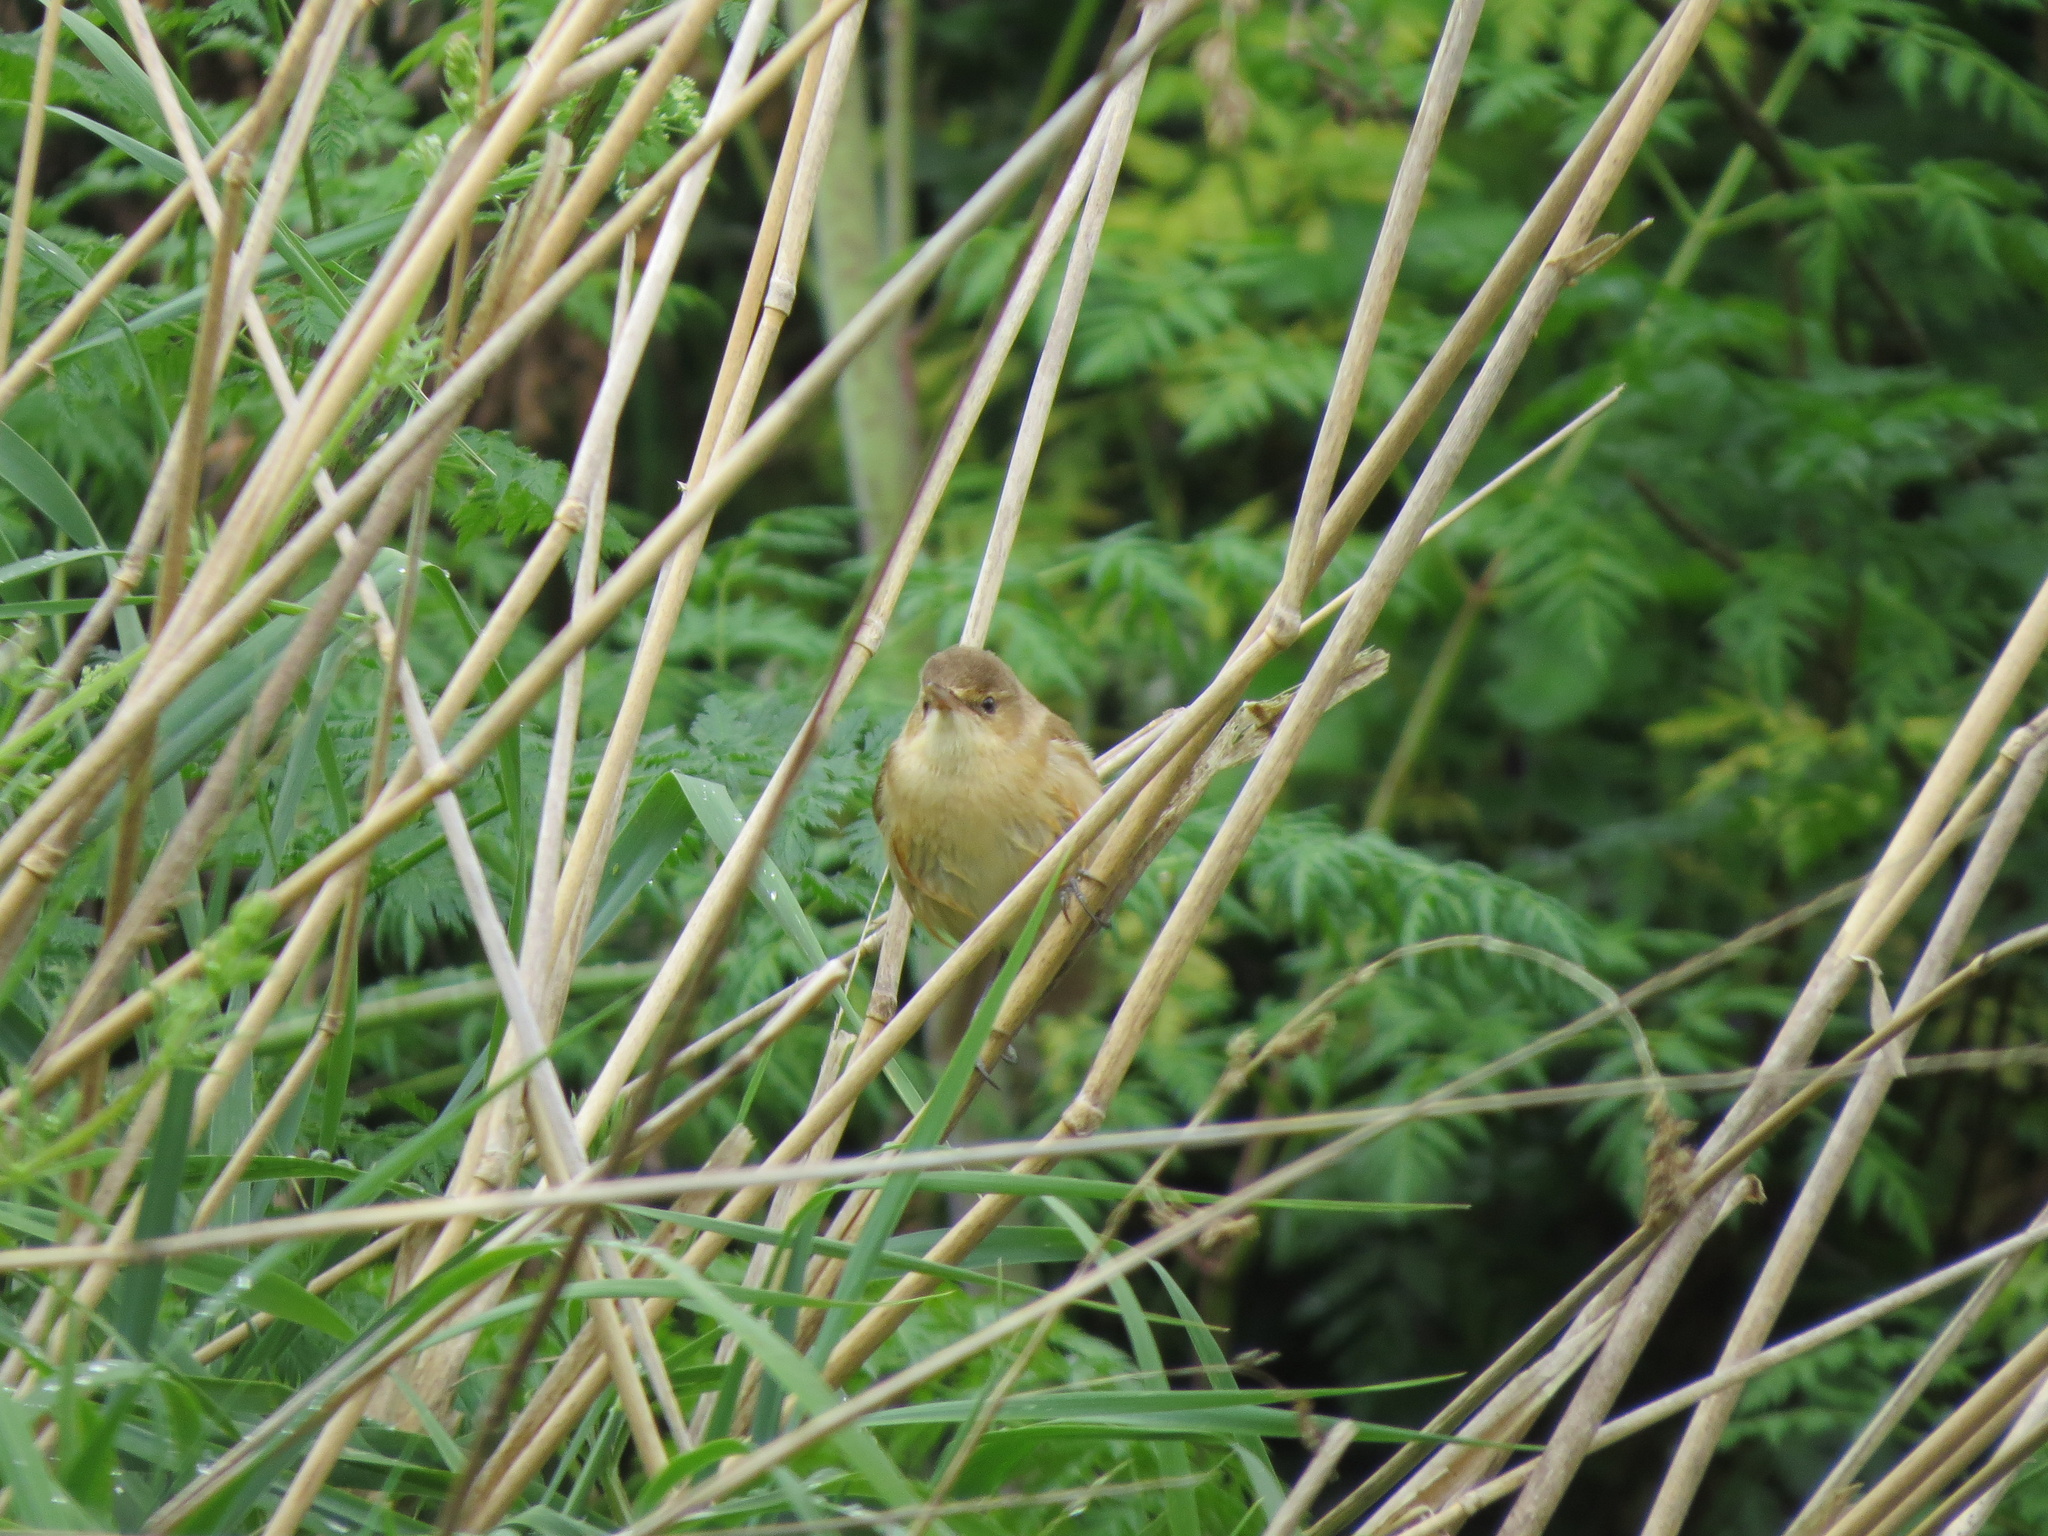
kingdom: Animalia
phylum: Chordata
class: Aves
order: Passeriformes
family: Acrocephalidae
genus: Acrocephalus
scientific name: Acrocephalus australis
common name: Australian reed warbler
